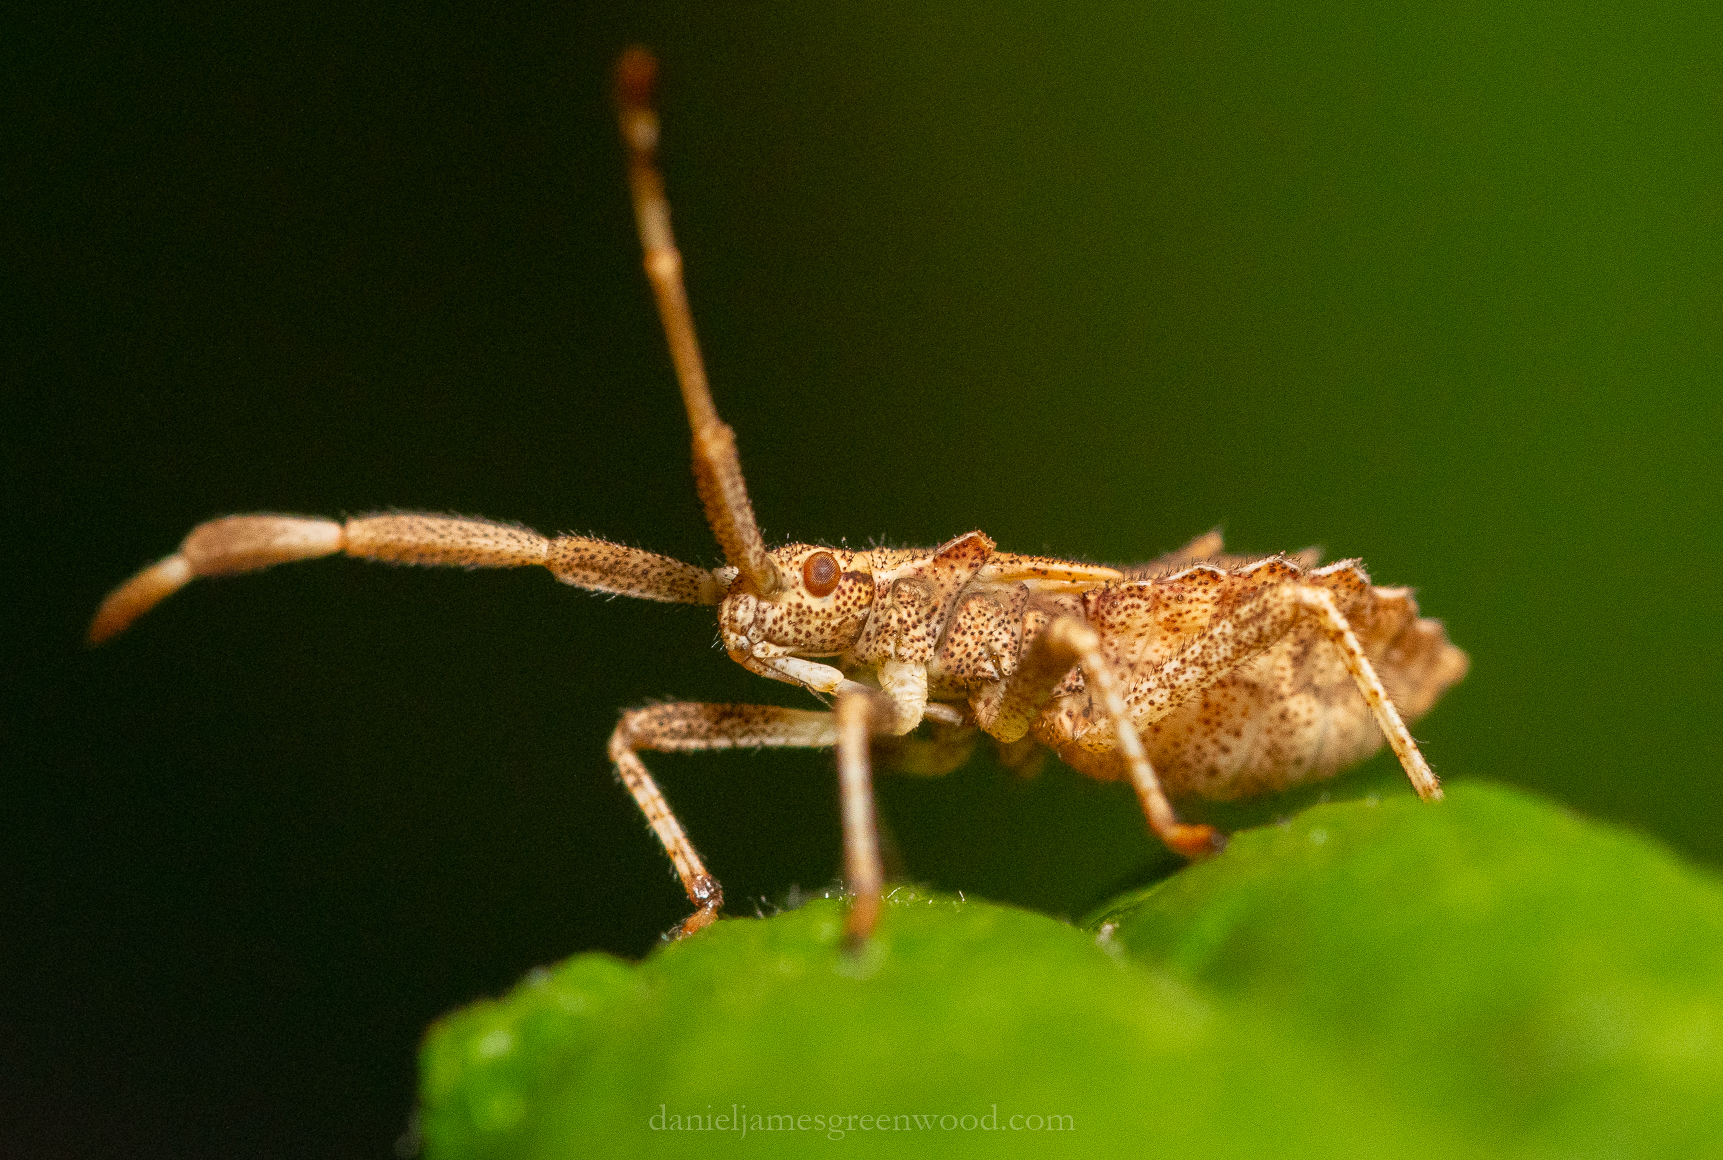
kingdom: Animalia
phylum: Arthropoda
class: Insecta
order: Hemiptera
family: Coreidae
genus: Coreus
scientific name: Coreus marginatus
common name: Dock bug
